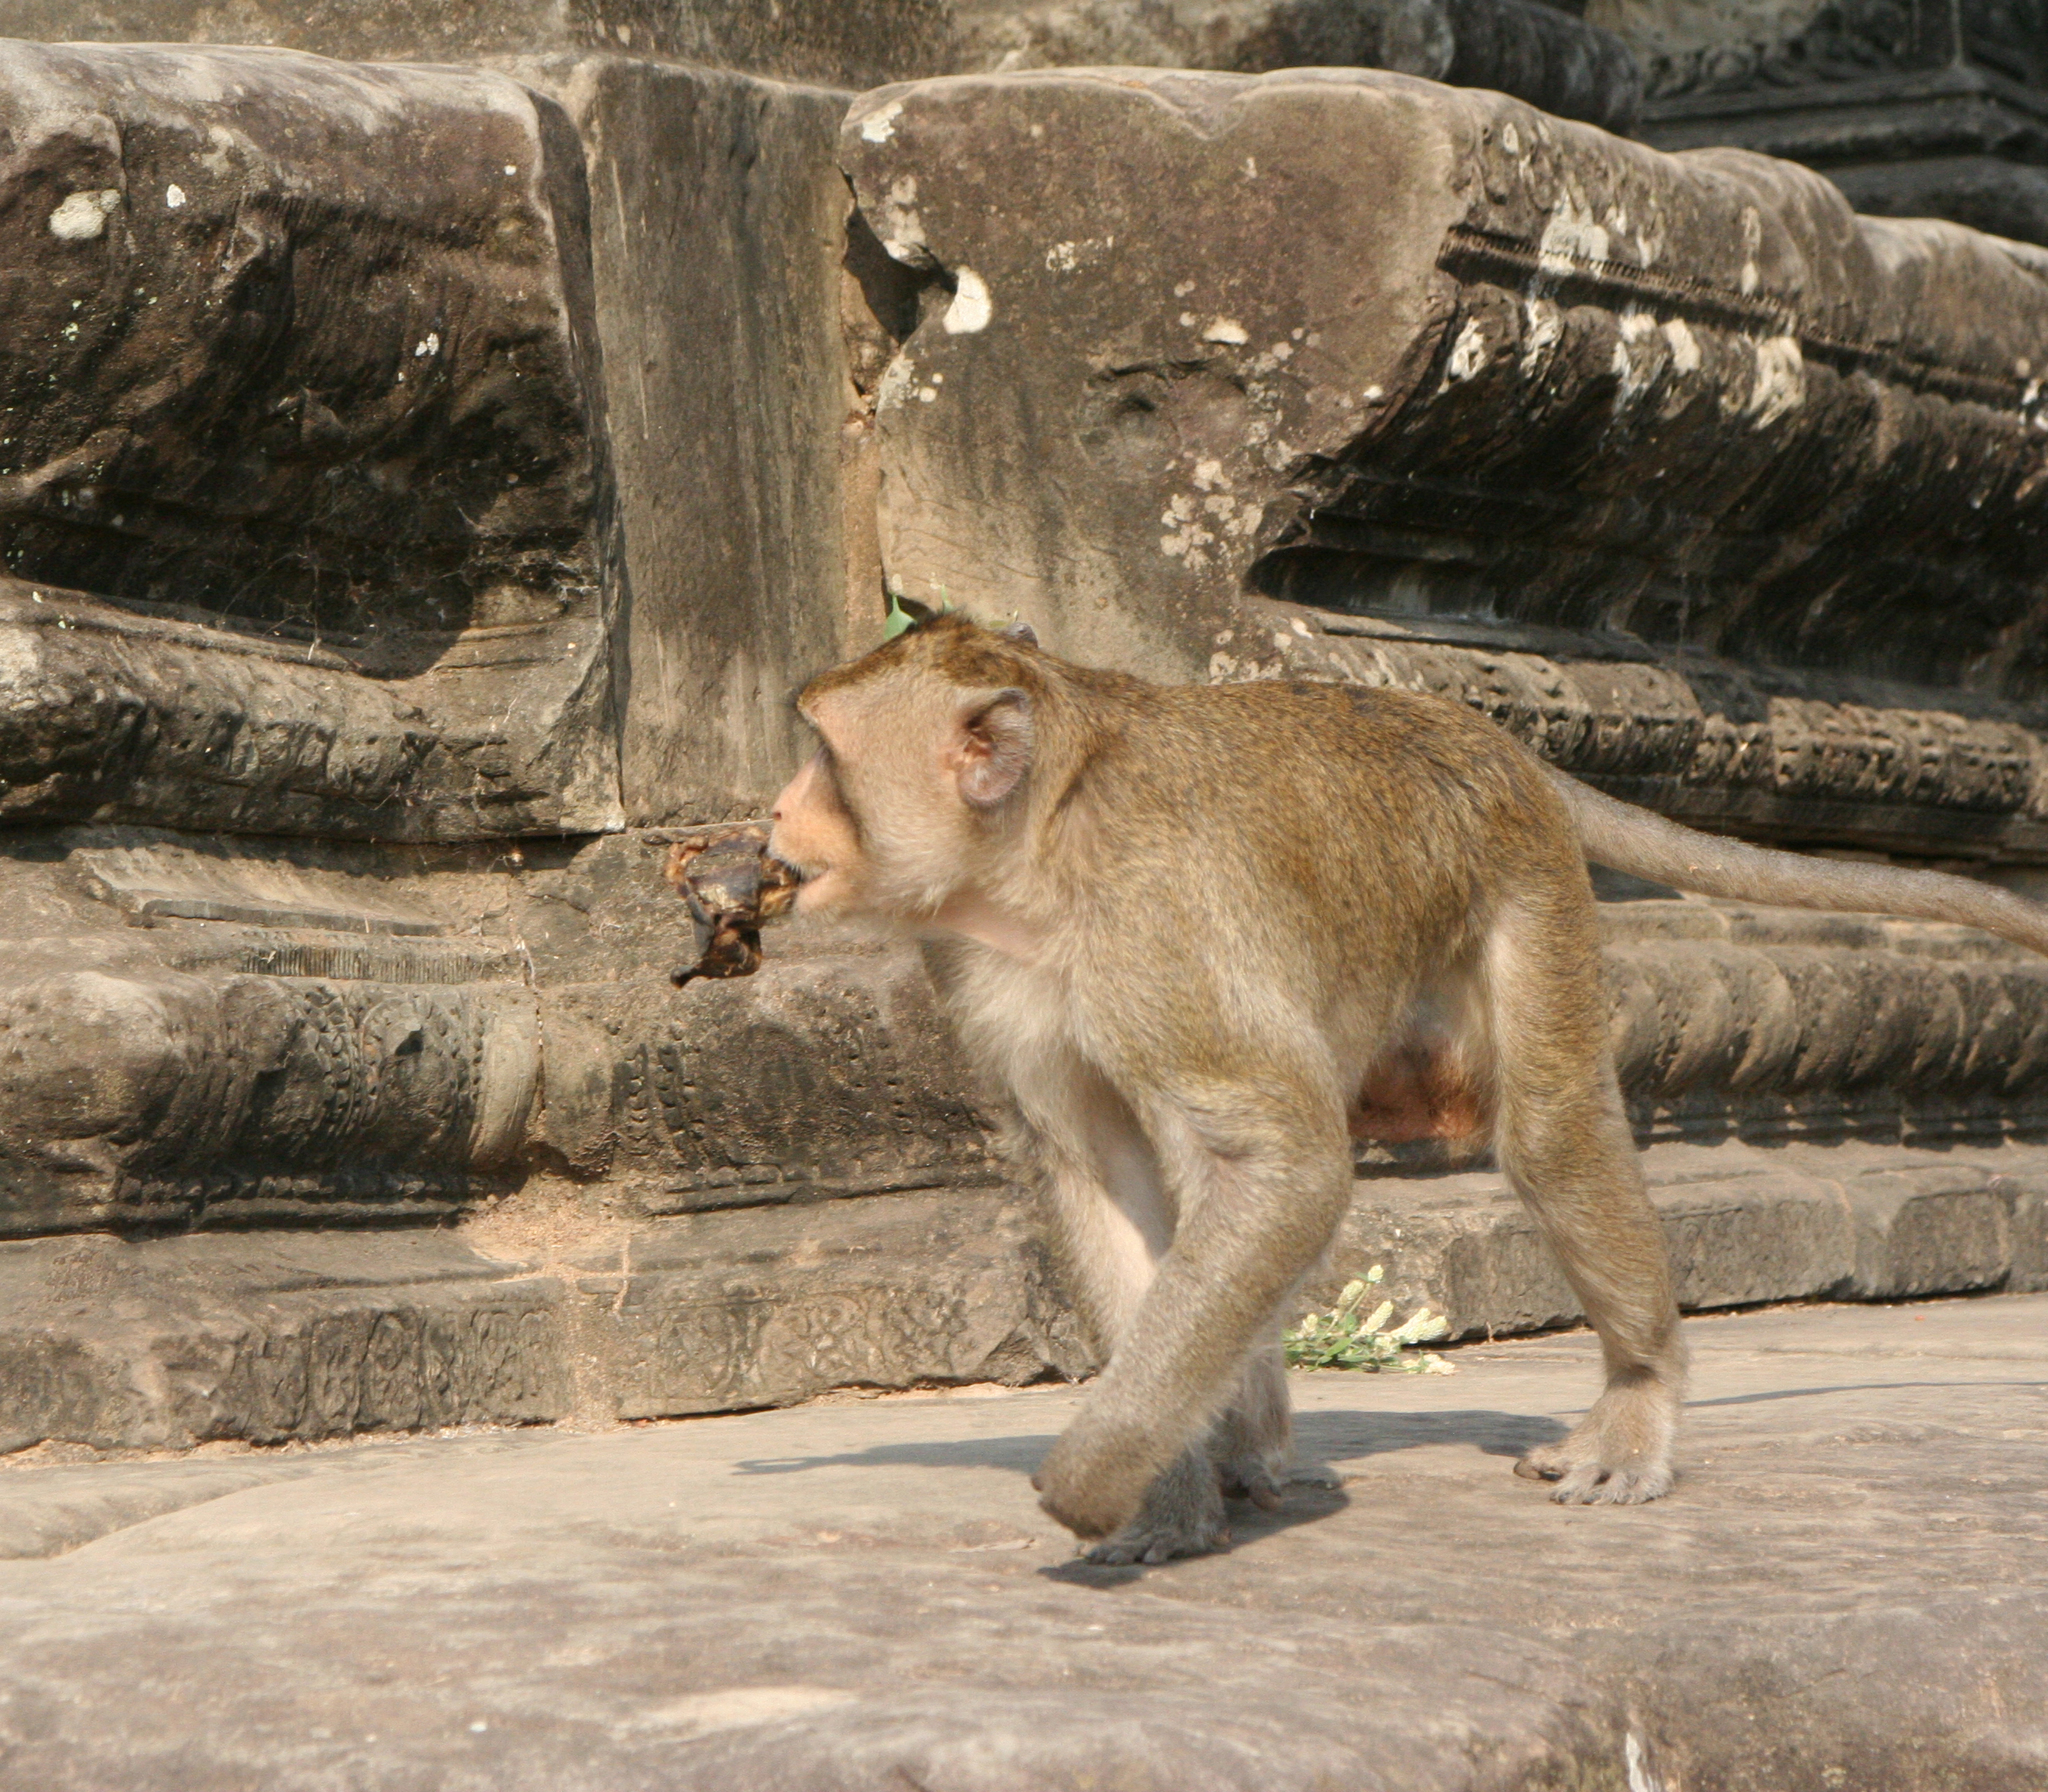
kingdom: Animalia
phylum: Chordata
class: Mammalia
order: Primates
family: Cercopithecidae
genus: Macaca
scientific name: Macaca fascicularis
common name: Crab-eating macaque
